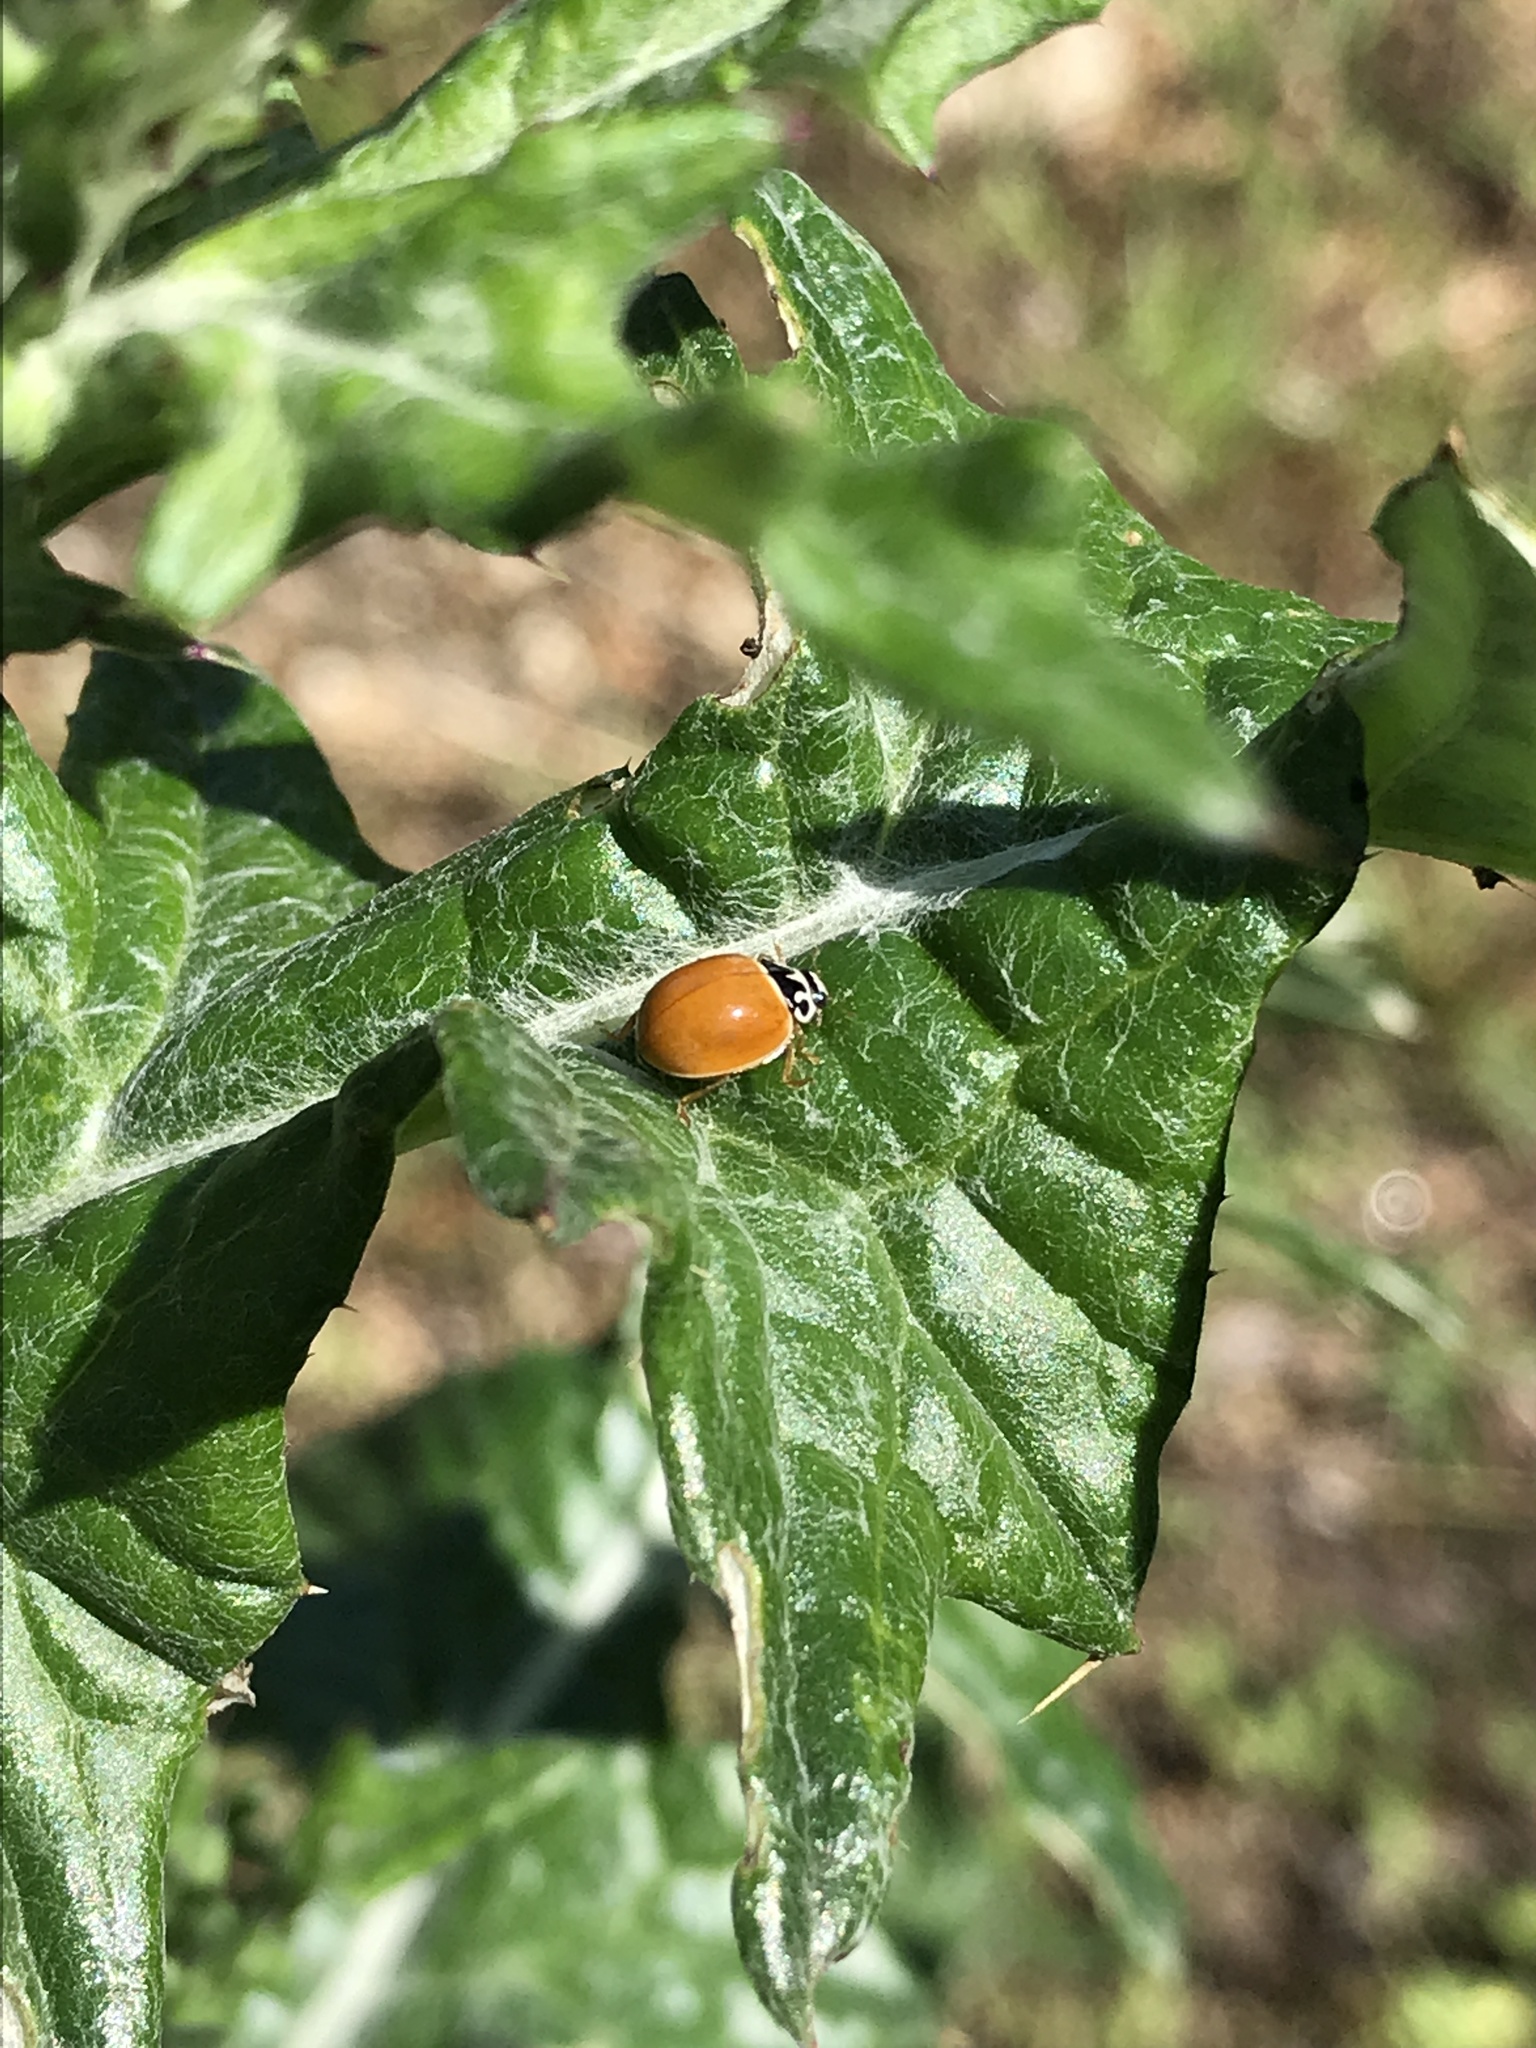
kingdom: Animalia
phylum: Arthropoda
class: Insecta
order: Coleoptera
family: Coccinellidae
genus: Cycloneda
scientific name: Cycloneda munda
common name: Polished lady beetle
